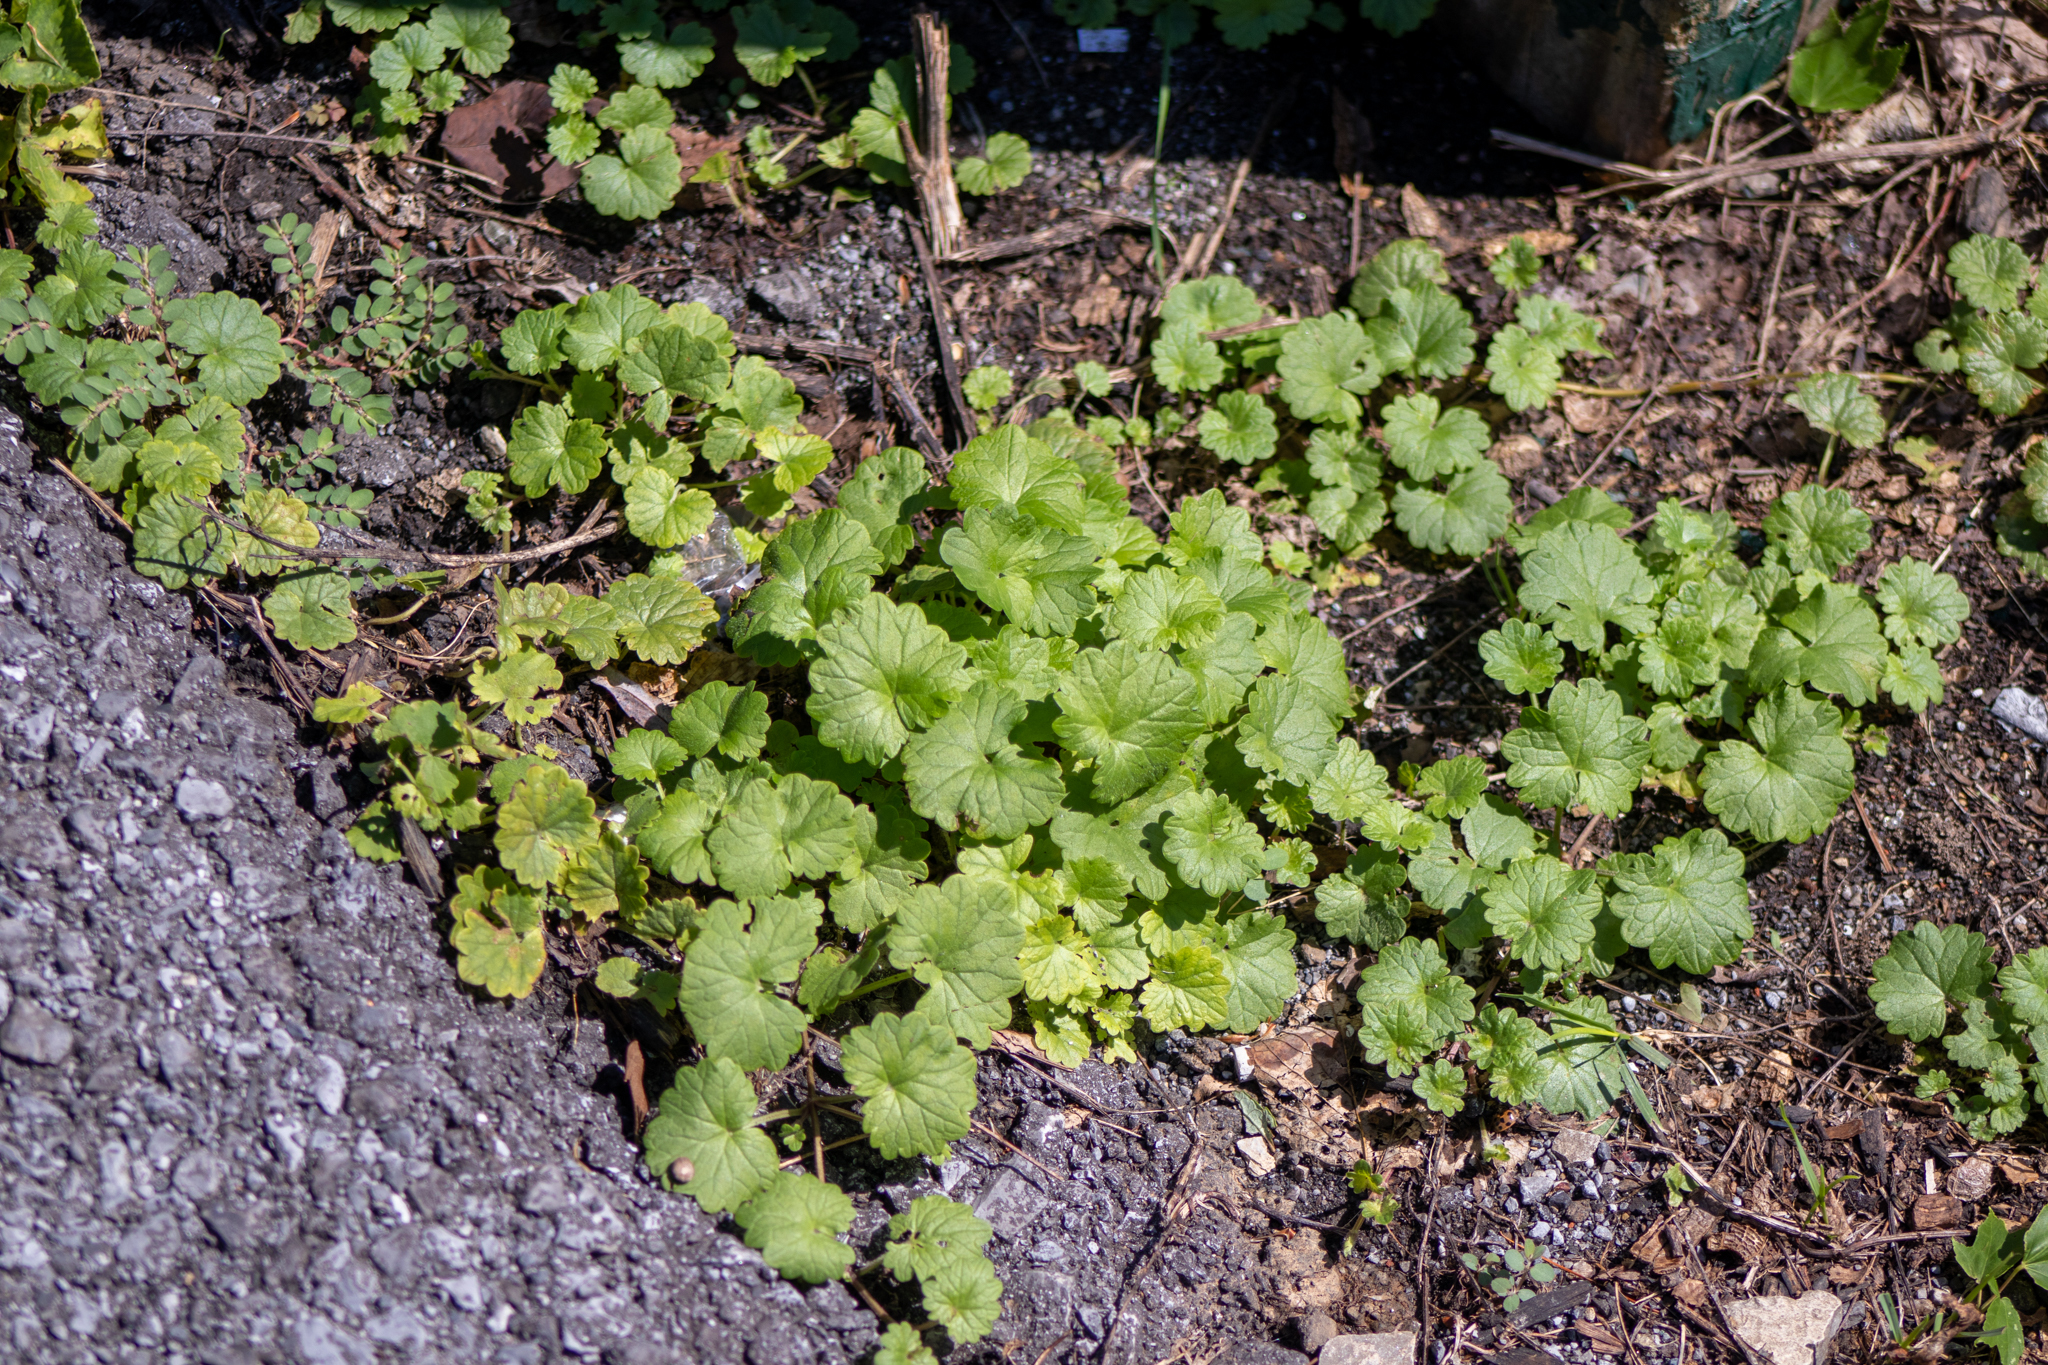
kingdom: Plantae
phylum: Tracheophyta
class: Magnoliopsida
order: Lamiales
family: Lamiaceae
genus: Glechoma
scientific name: Glechoma hederacea
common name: Ground ivy
